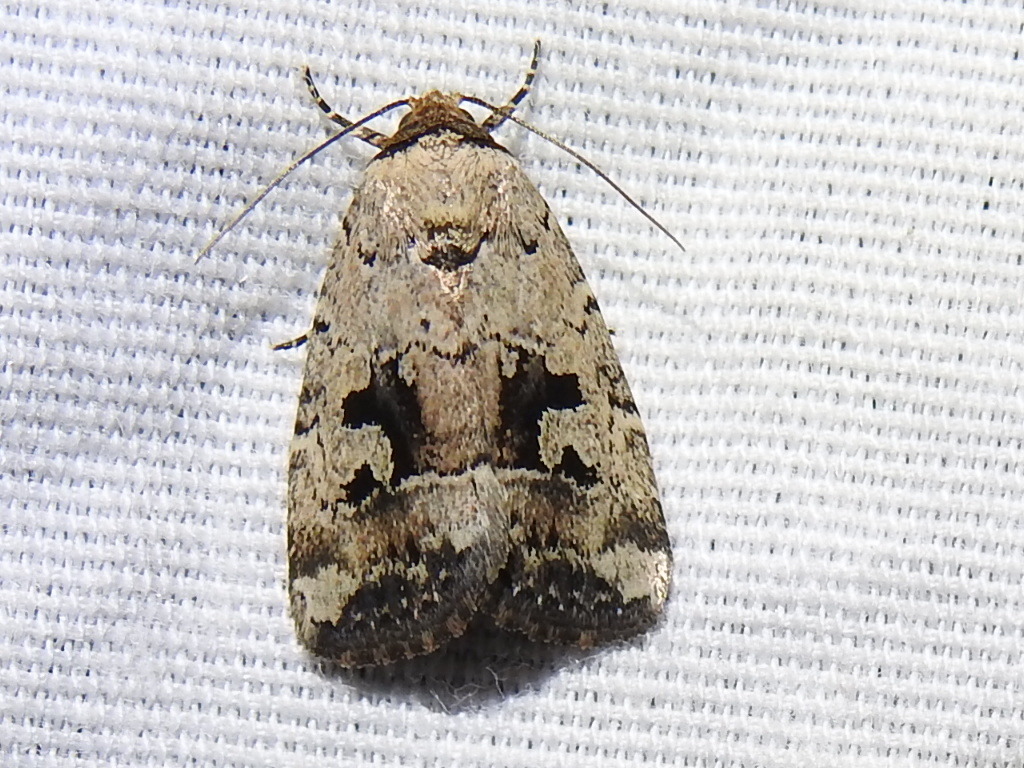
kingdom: Animalia
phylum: Arthropoda
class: Insecta
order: Lepidoptera
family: Noctuidae
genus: Elaphria
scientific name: Elaphria festivoides
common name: Festive midget
